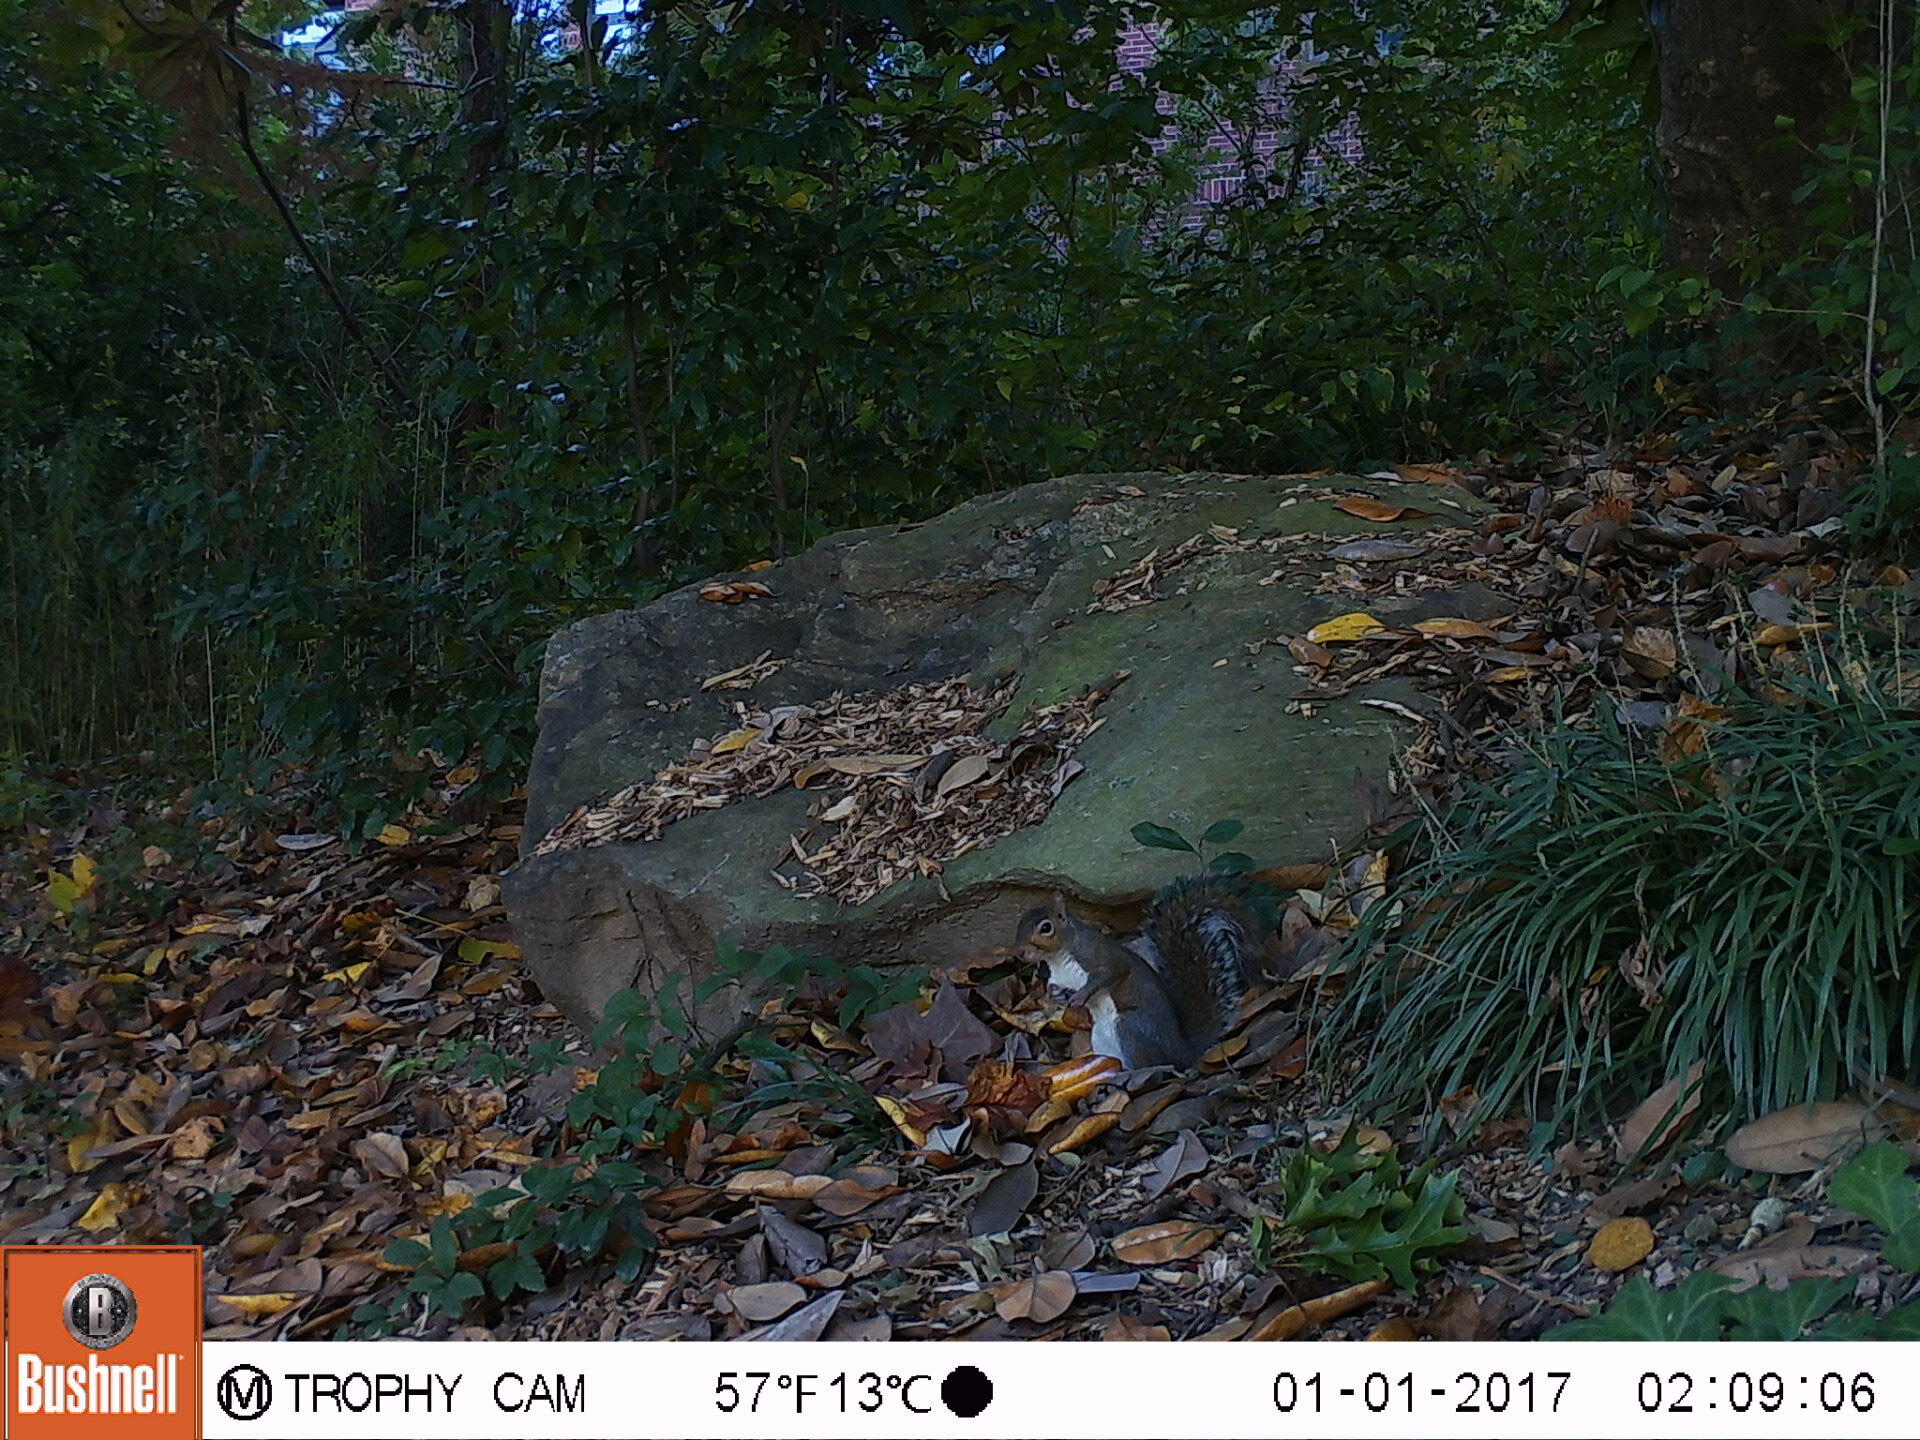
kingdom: Animalia
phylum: Chordata
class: Mammalia
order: Rodentia
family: Sciuridae
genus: Sciurus
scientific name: Sciurus carolinensis
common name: Eastern gray squirrel
